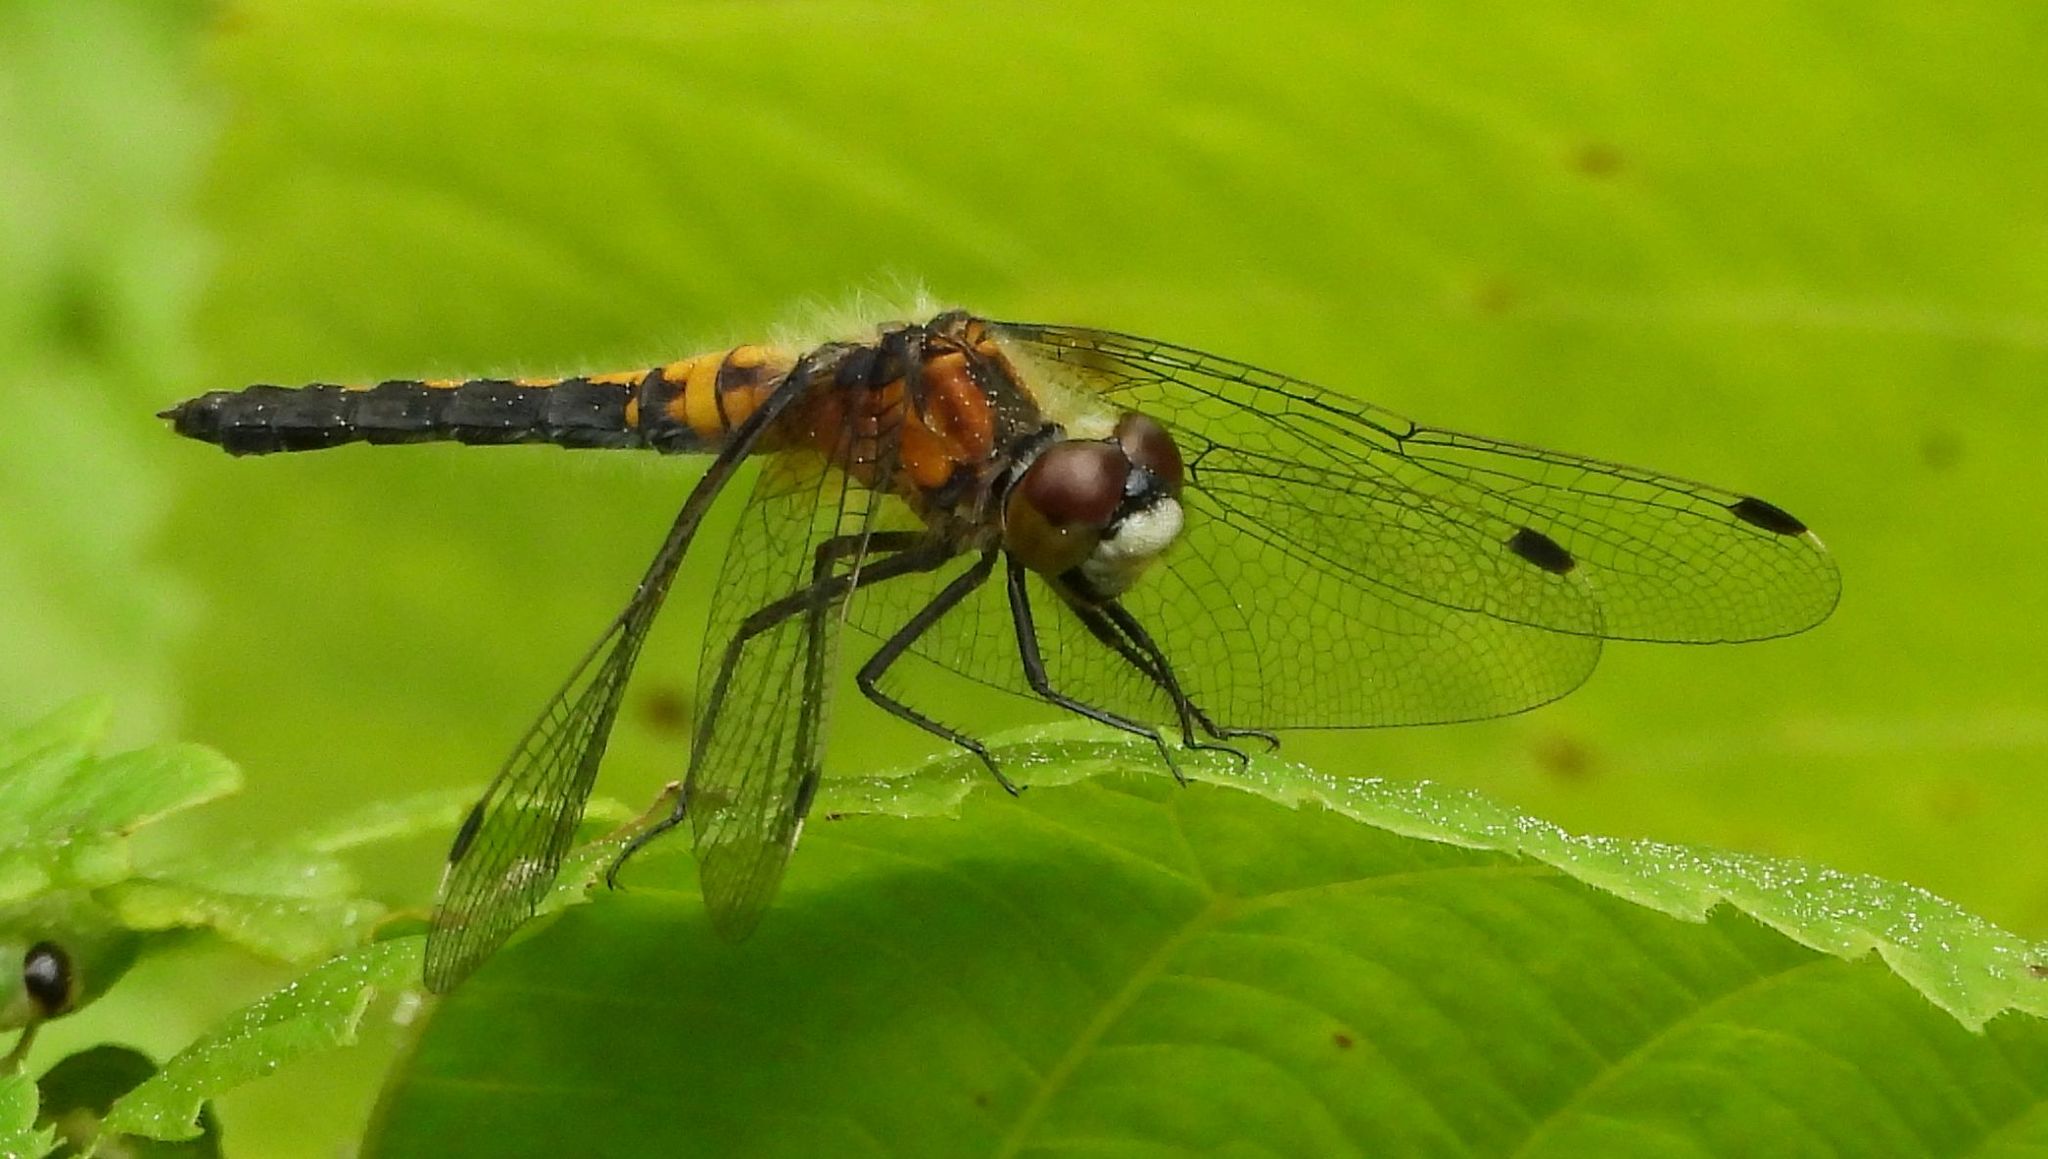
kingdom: Animalia
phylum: Arthropoda
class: Insecta
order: Odonata
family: Libellulidae
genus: Leucorrhinia
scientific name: Leucorrhinia frigida
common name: Frosted whiteface
